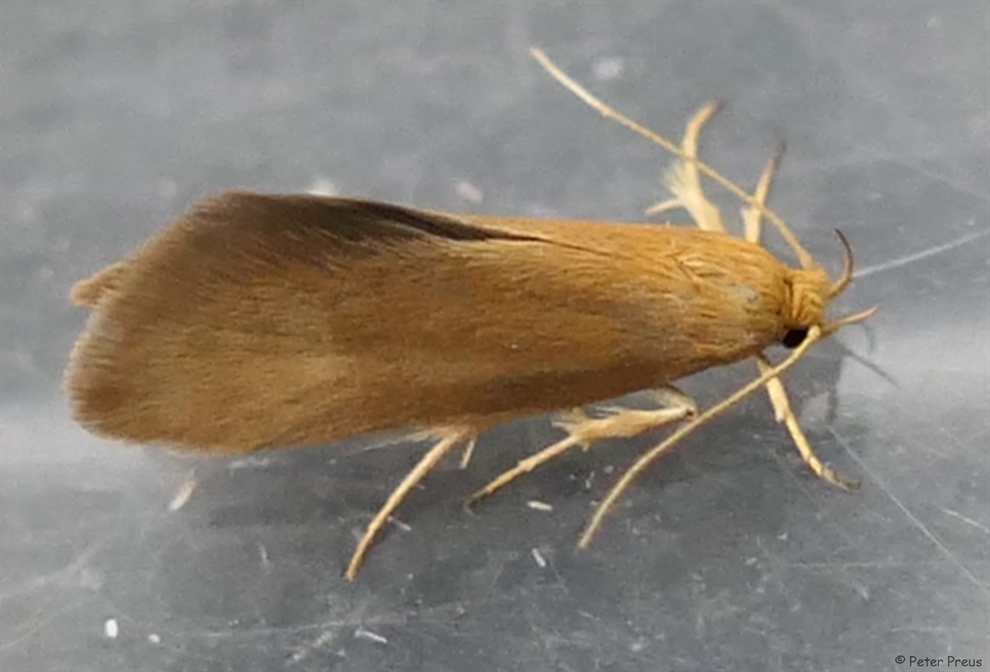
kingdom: Animalia
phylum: Arthropoda
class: Insecta
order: Lepidoptera
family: Oecophoridae
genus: Borkhausenia
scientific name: Borkhausenia Crassa tinctella
